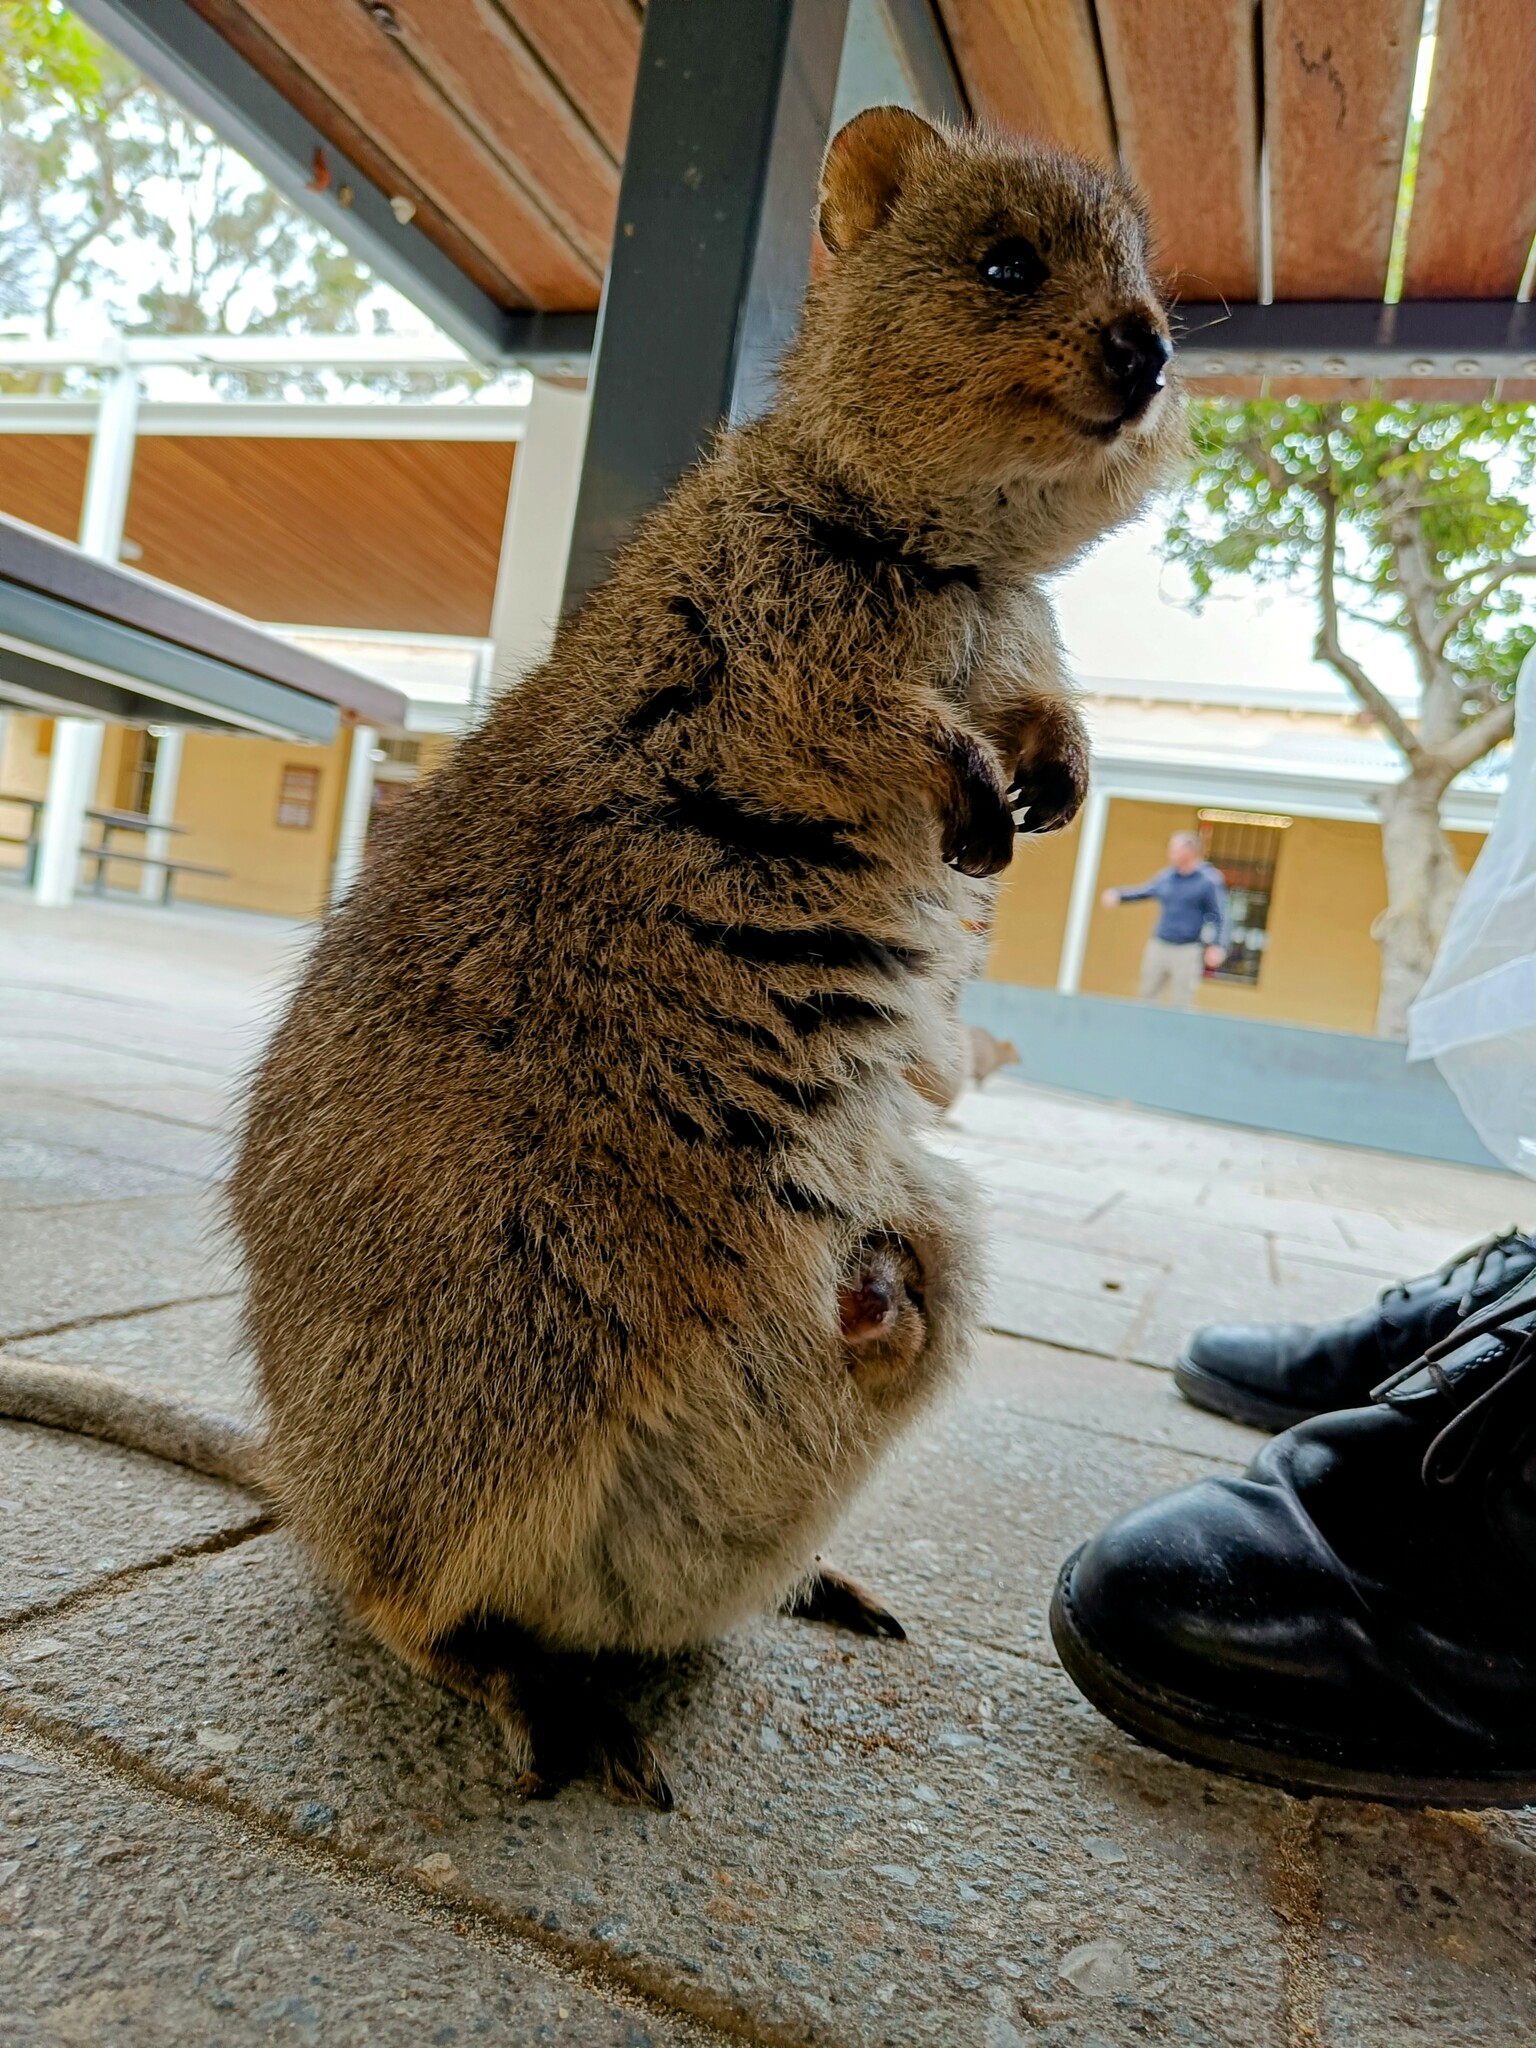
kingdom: Animalia
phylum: Chordata
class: Mammalia
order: Diprotodontia
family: Macropodidae
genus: Setonix
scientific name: Setonix brachyurus
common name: Quokka
